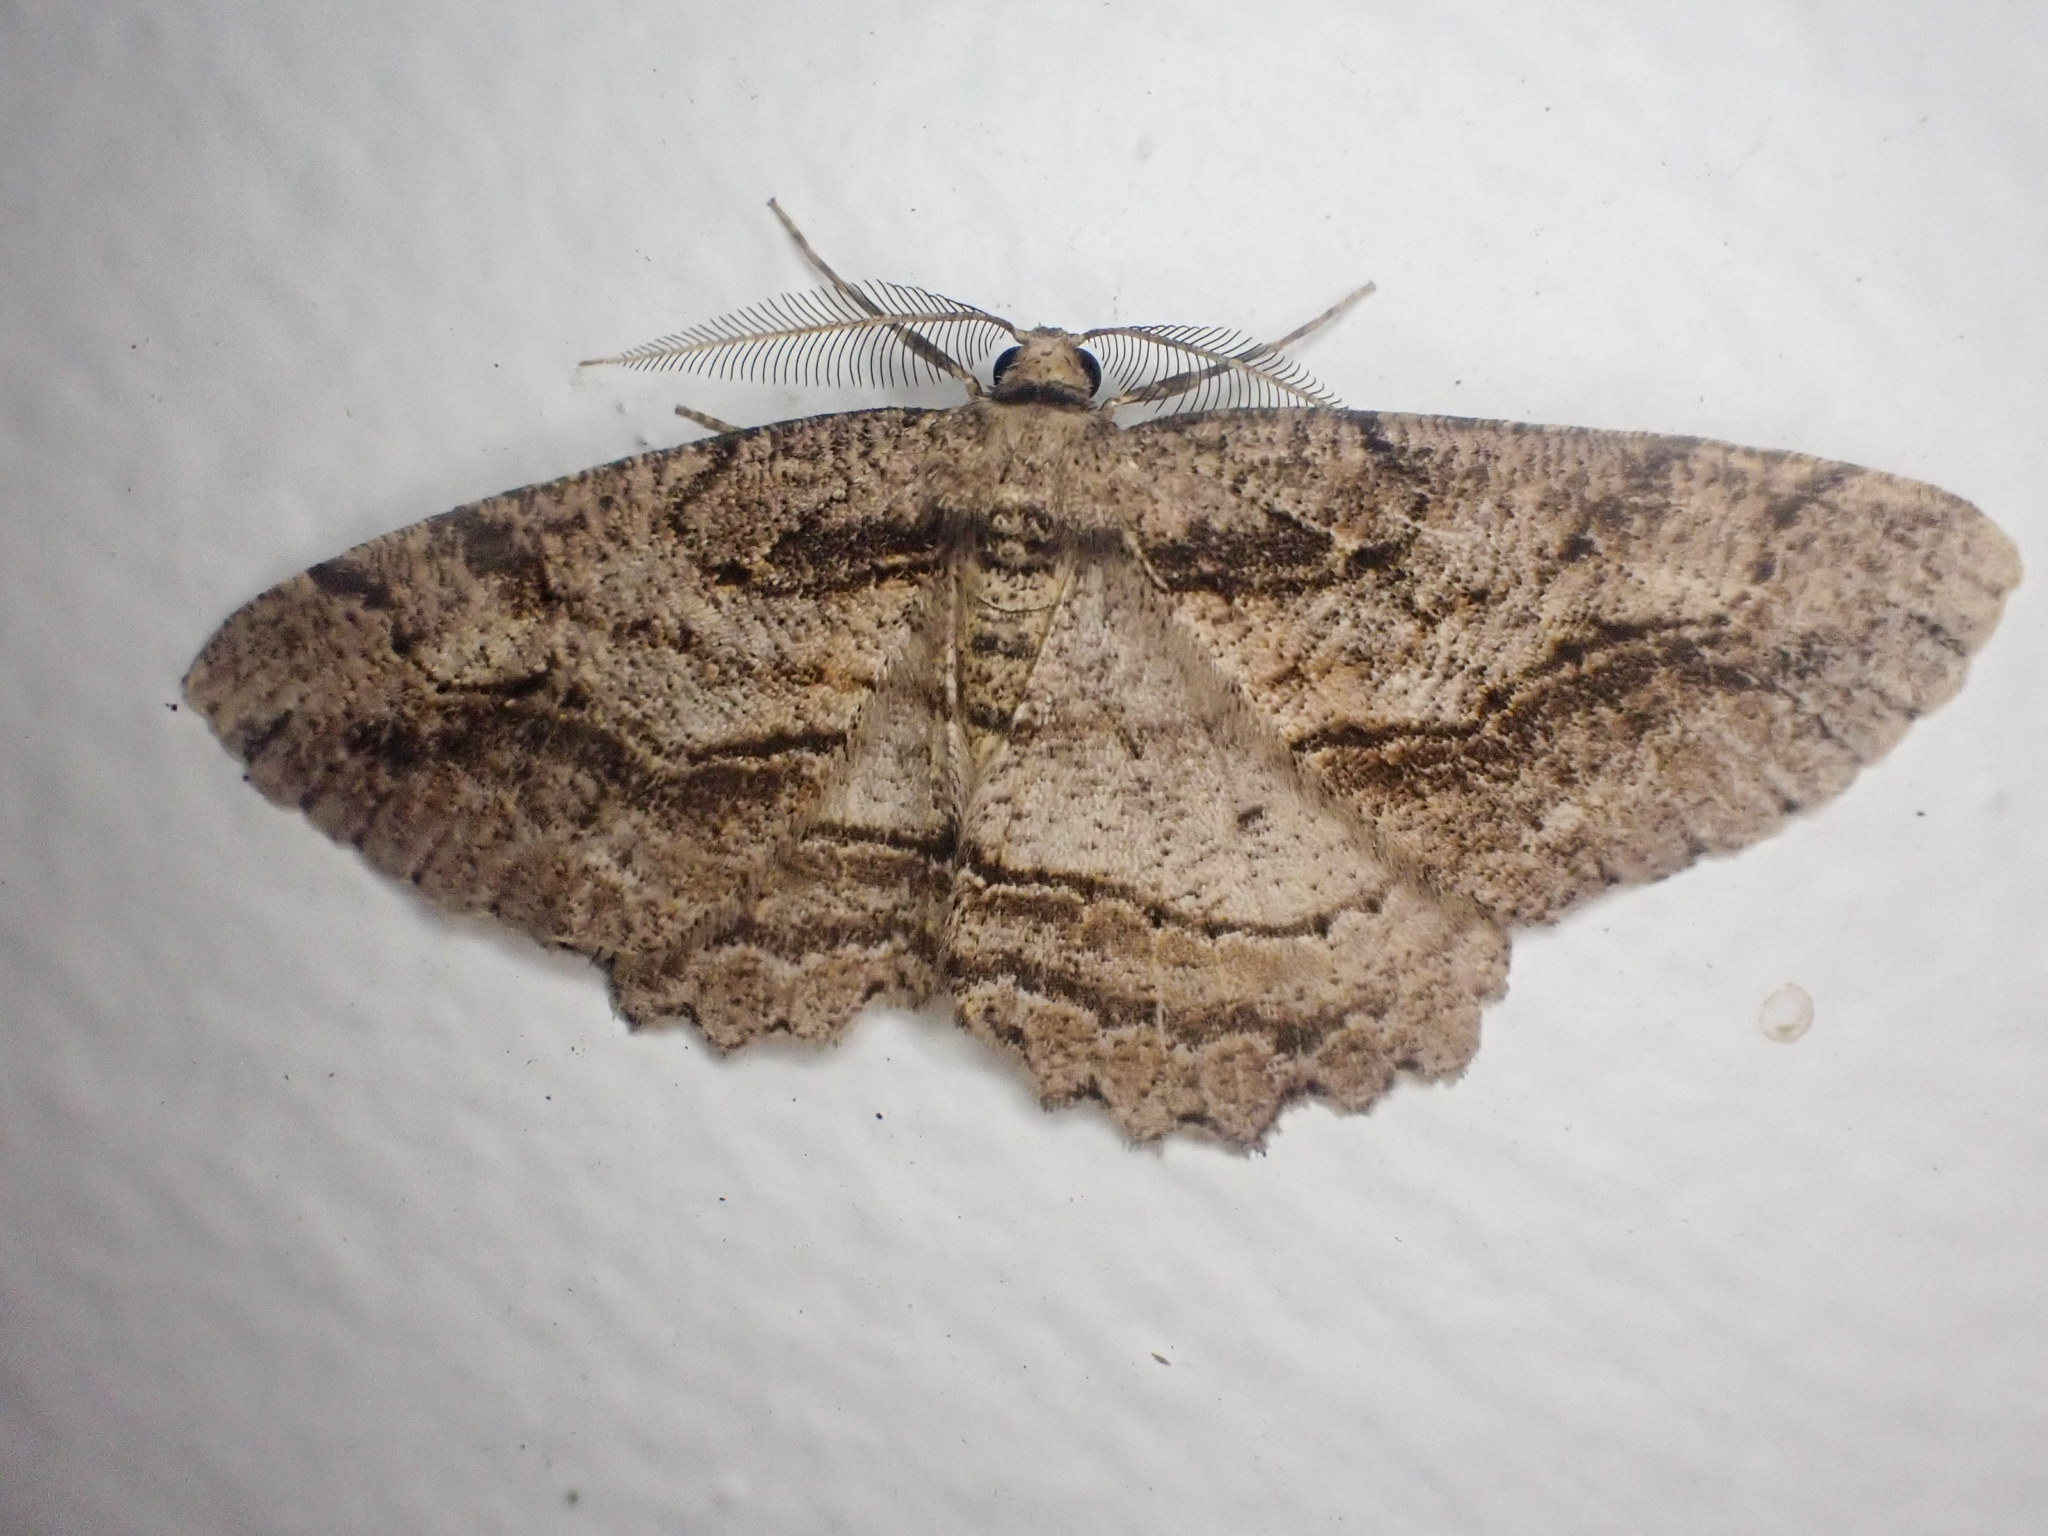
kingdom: Animalia
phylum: Arthropoda
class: Insecta
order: Lepidoptera
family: Geometridae
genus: Neoalcis
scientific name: Neoalcis californiaria
